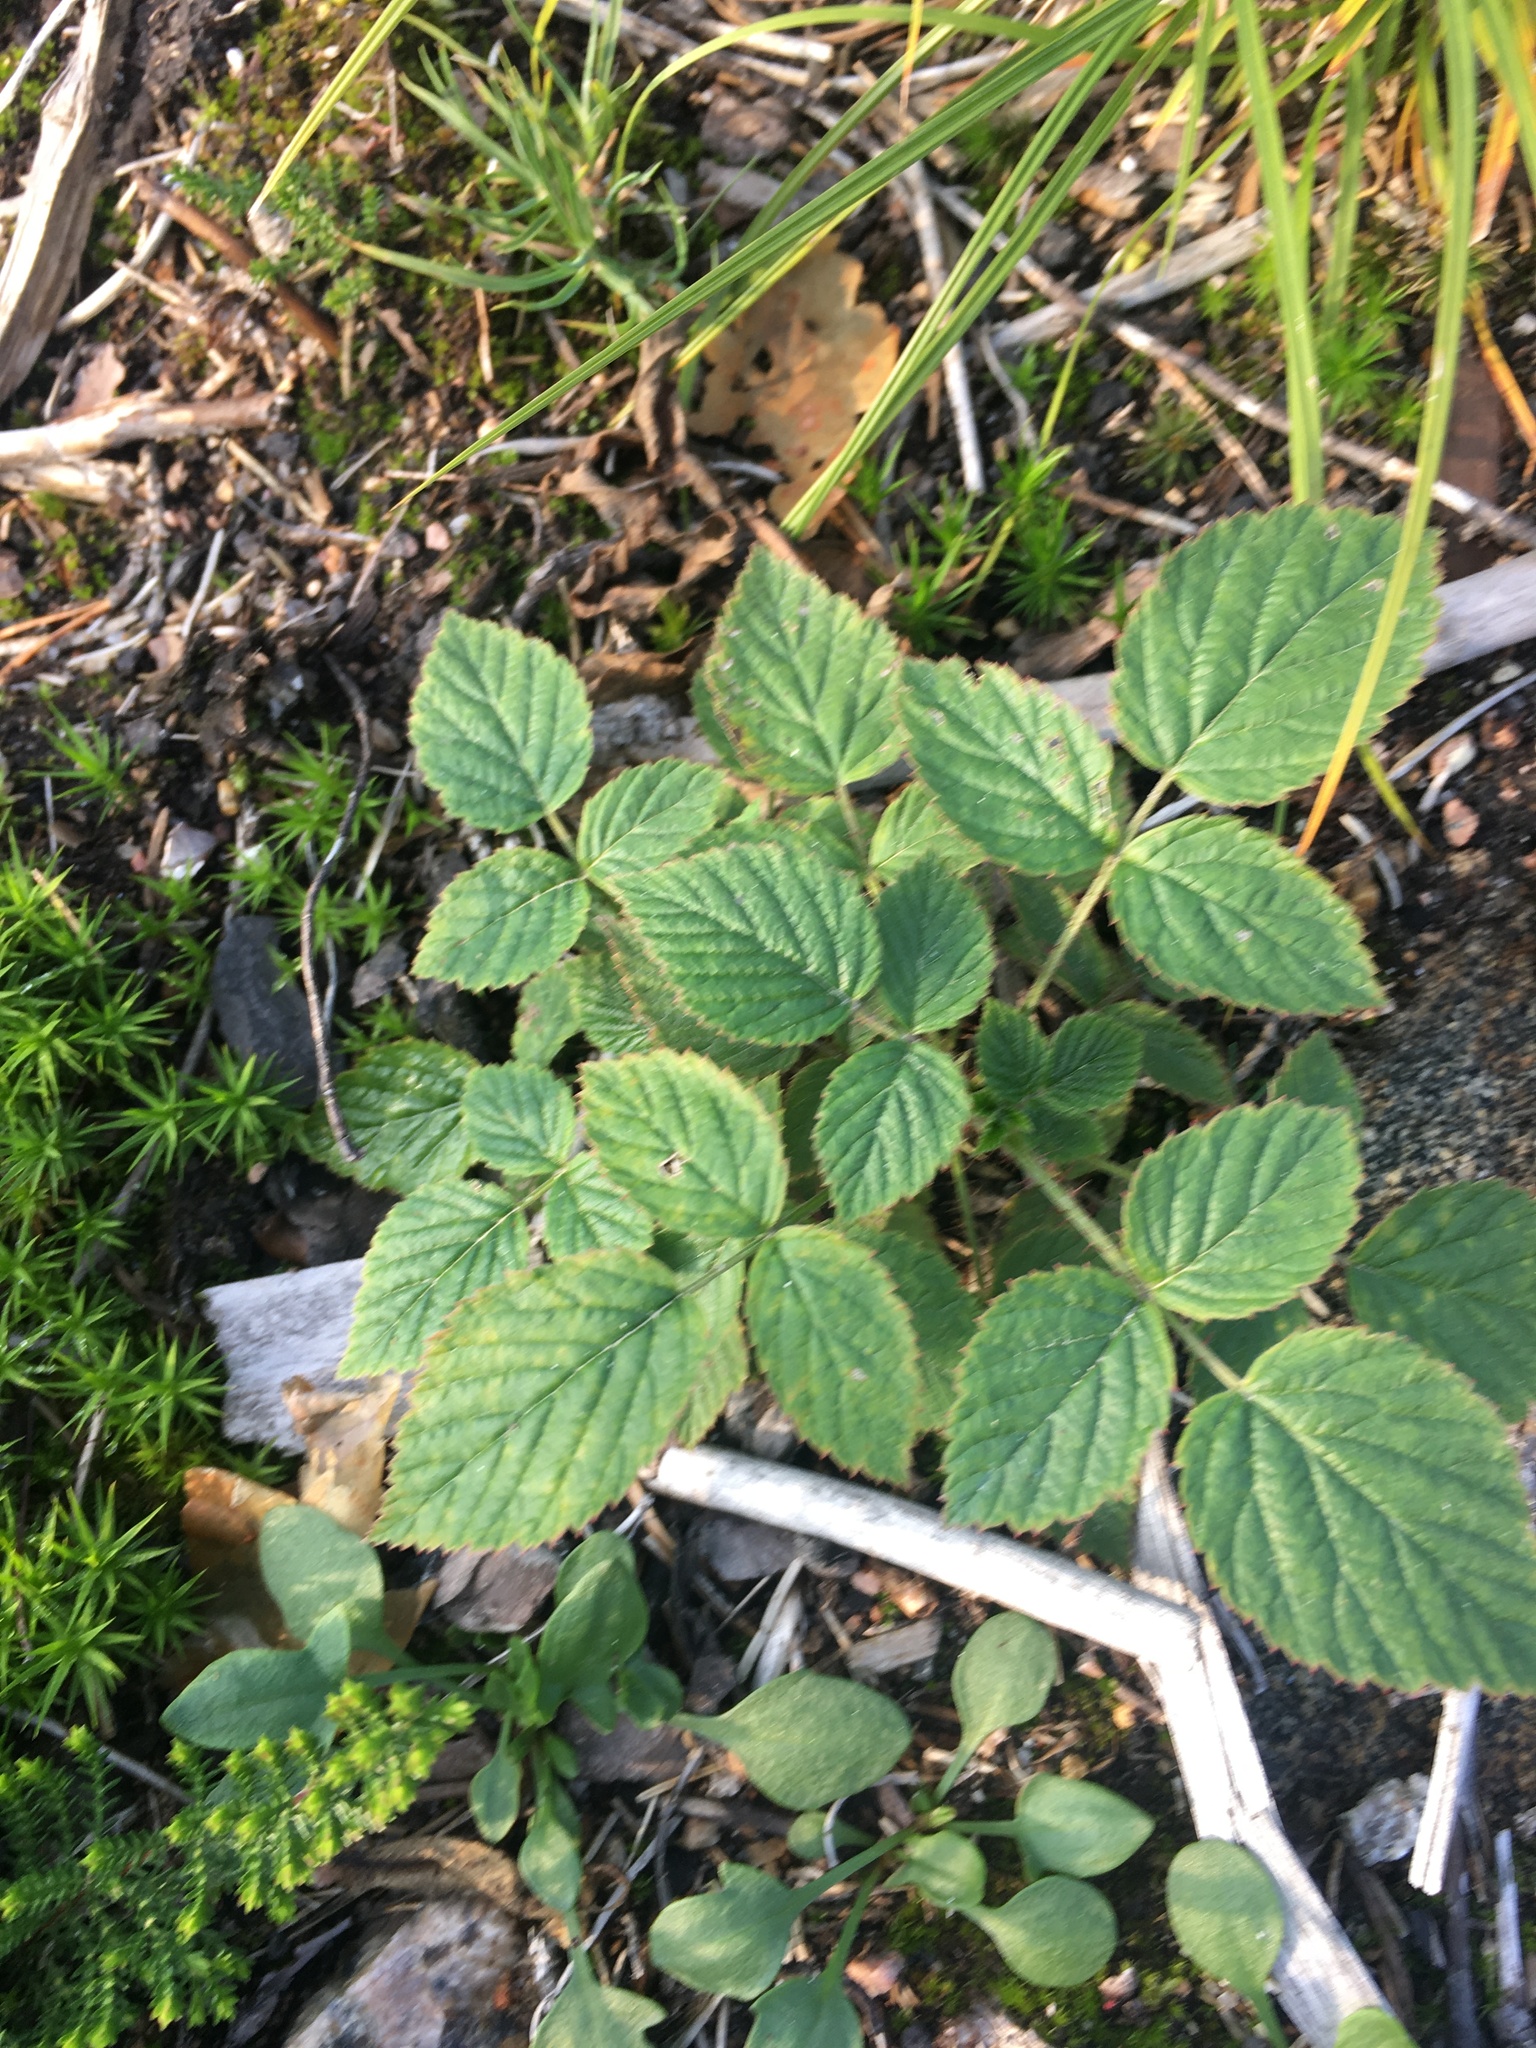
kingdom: Plantae
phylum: Tracheophyta
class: Magnoliopsida
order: Rosales
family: Rosaceae
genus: Rubus
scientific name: Rubus idaeus
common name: Raspberry
